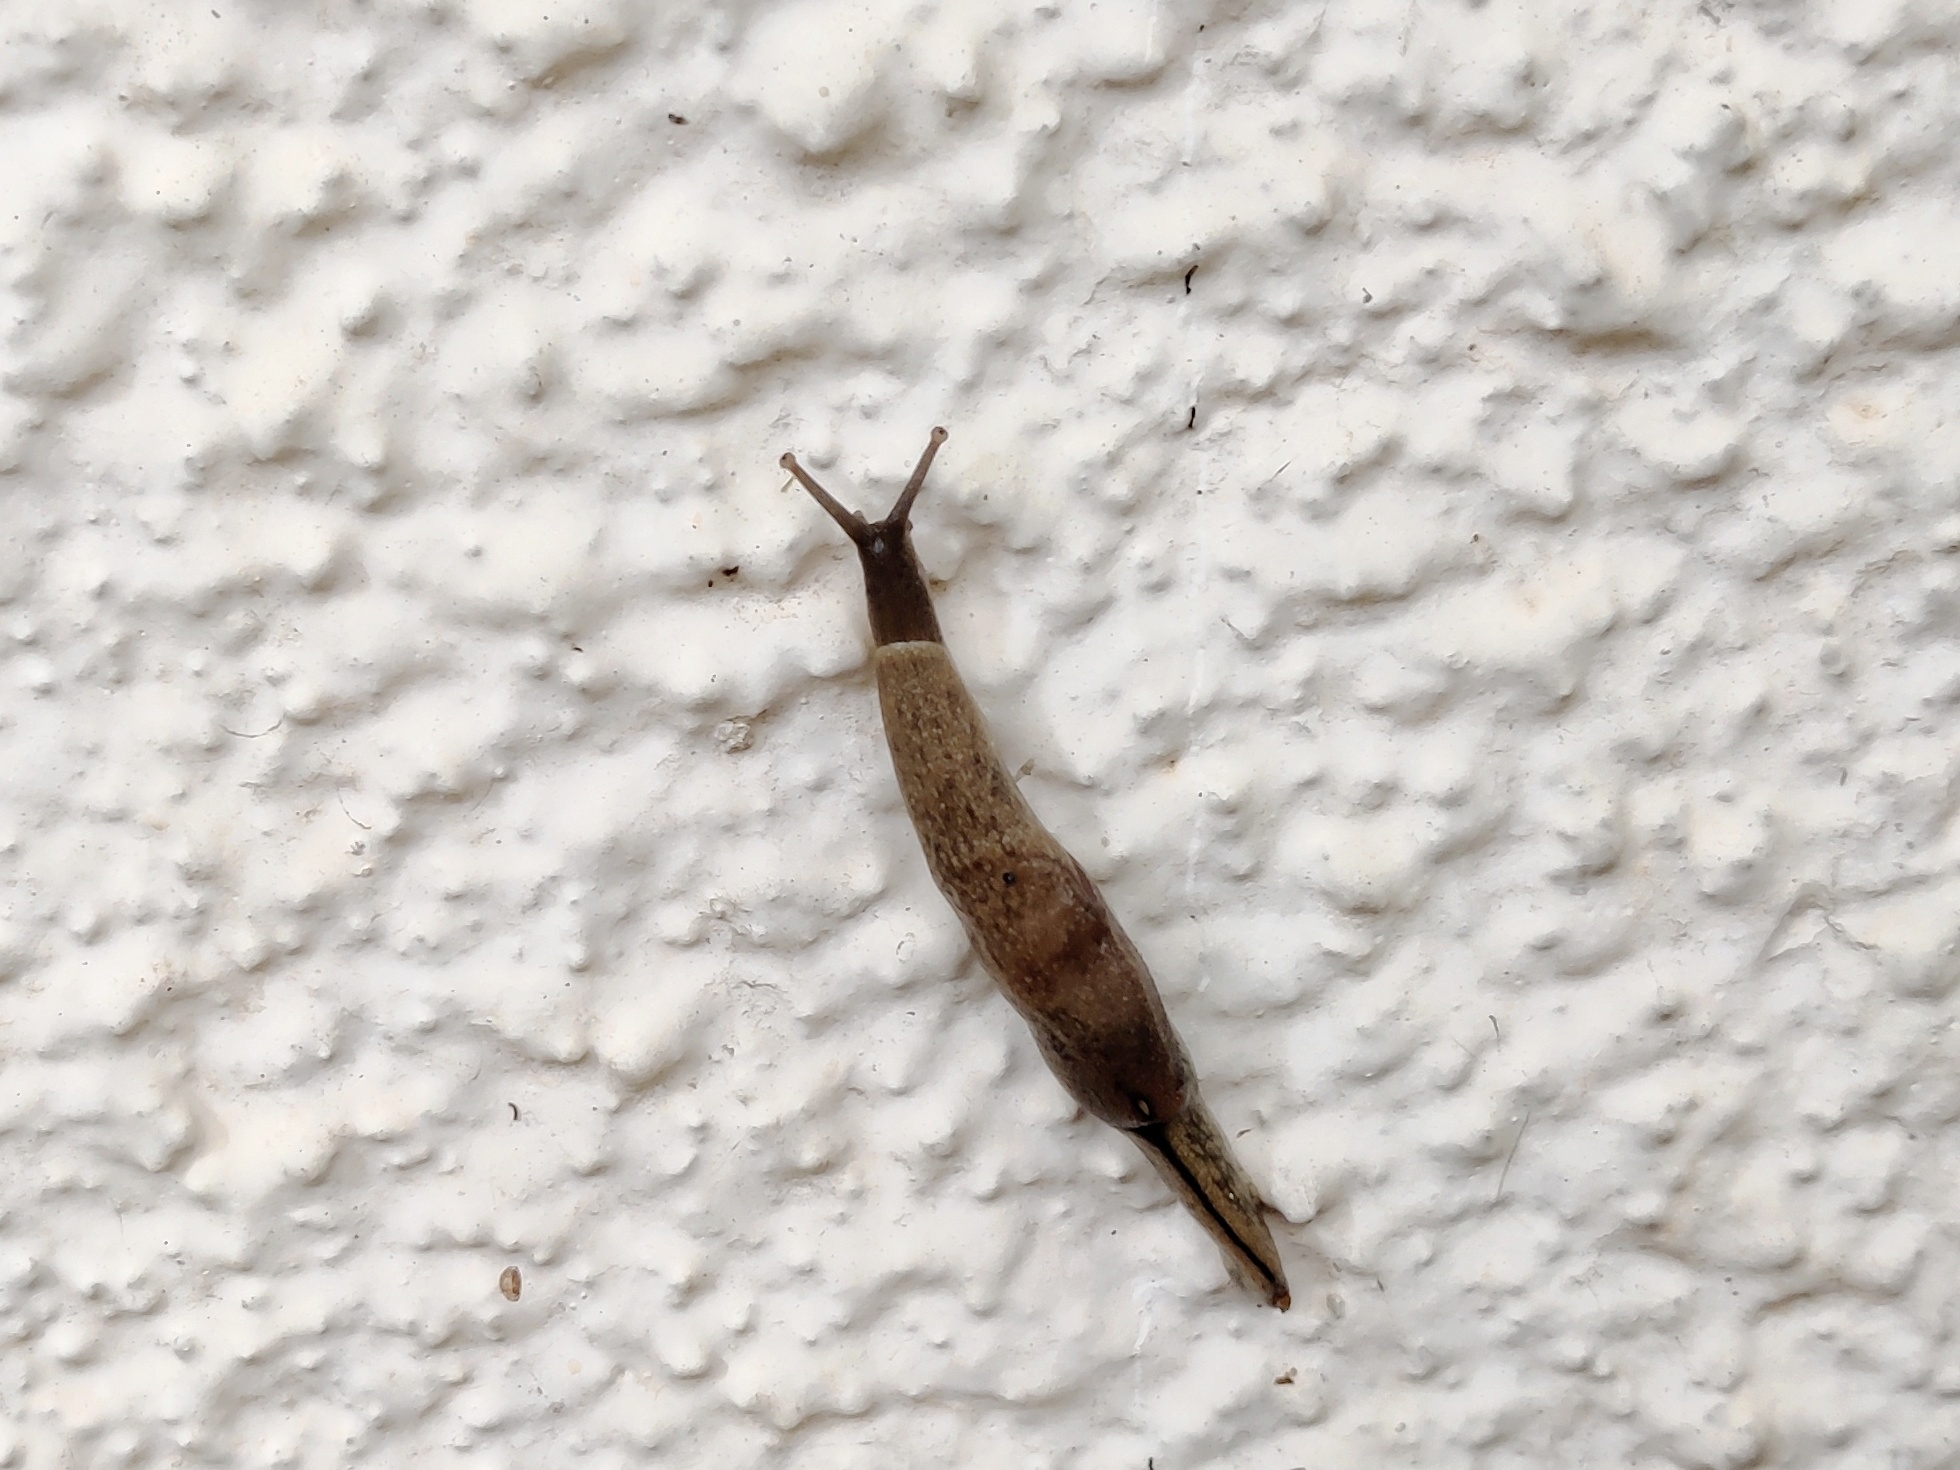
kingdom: Animalia
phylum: Mollusca
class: Gastropoda
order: Stylommatophora
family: Ariophantidae
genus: Mariaella
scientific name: Mariaella dussumieri
